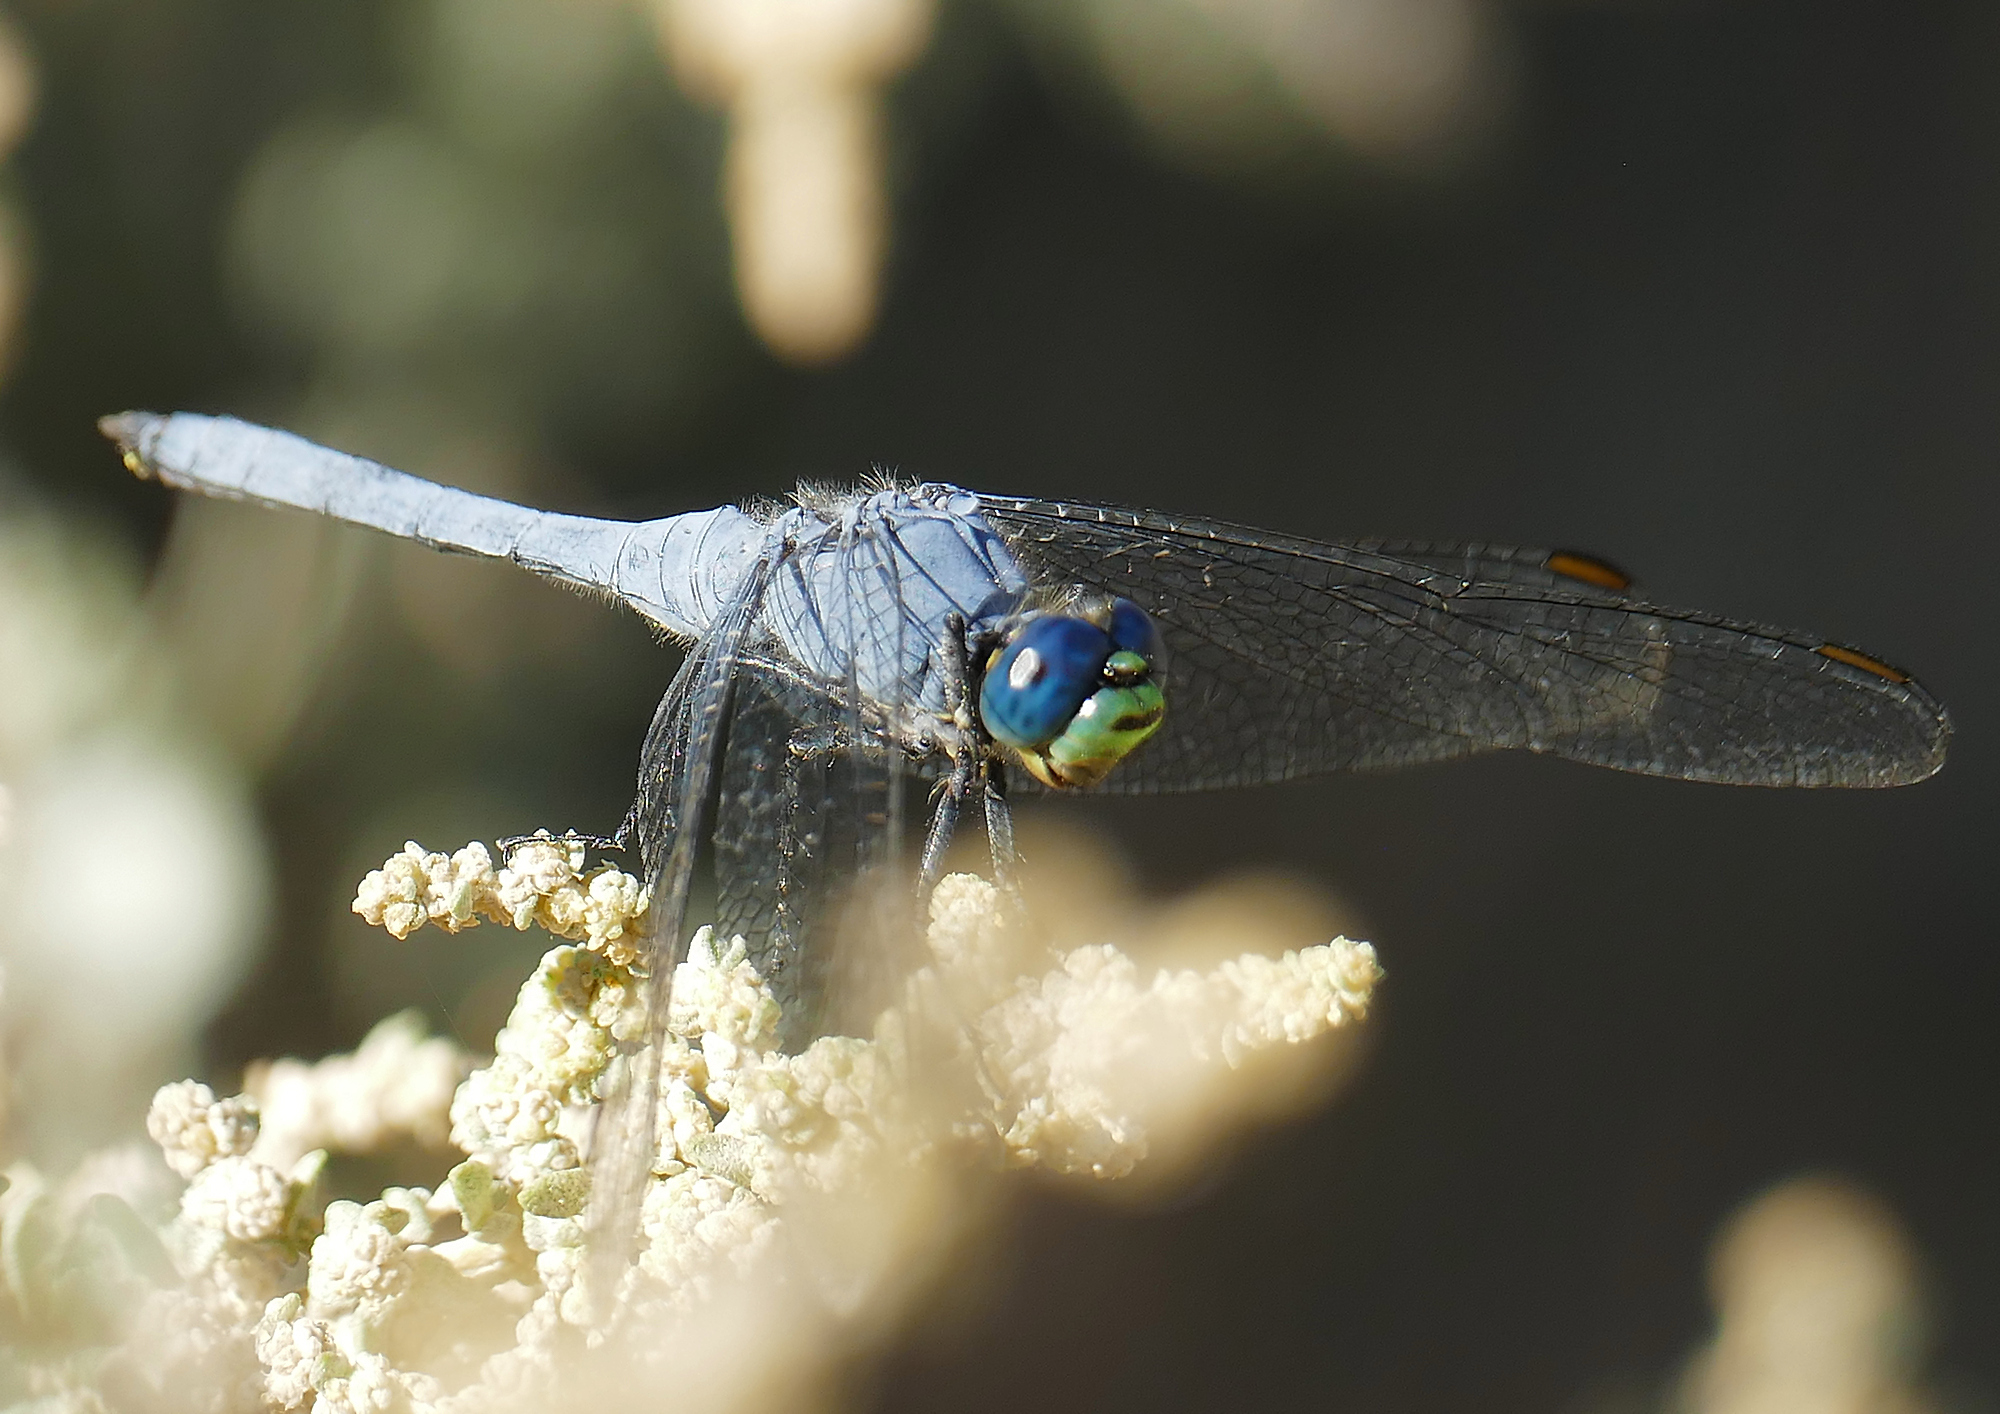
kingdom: Animalia
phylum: Arthropoda
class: Insecta
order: Odonata
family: Libellulidae
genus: Erythemis
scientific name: Erythemis collocata
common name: Western pondhawk
